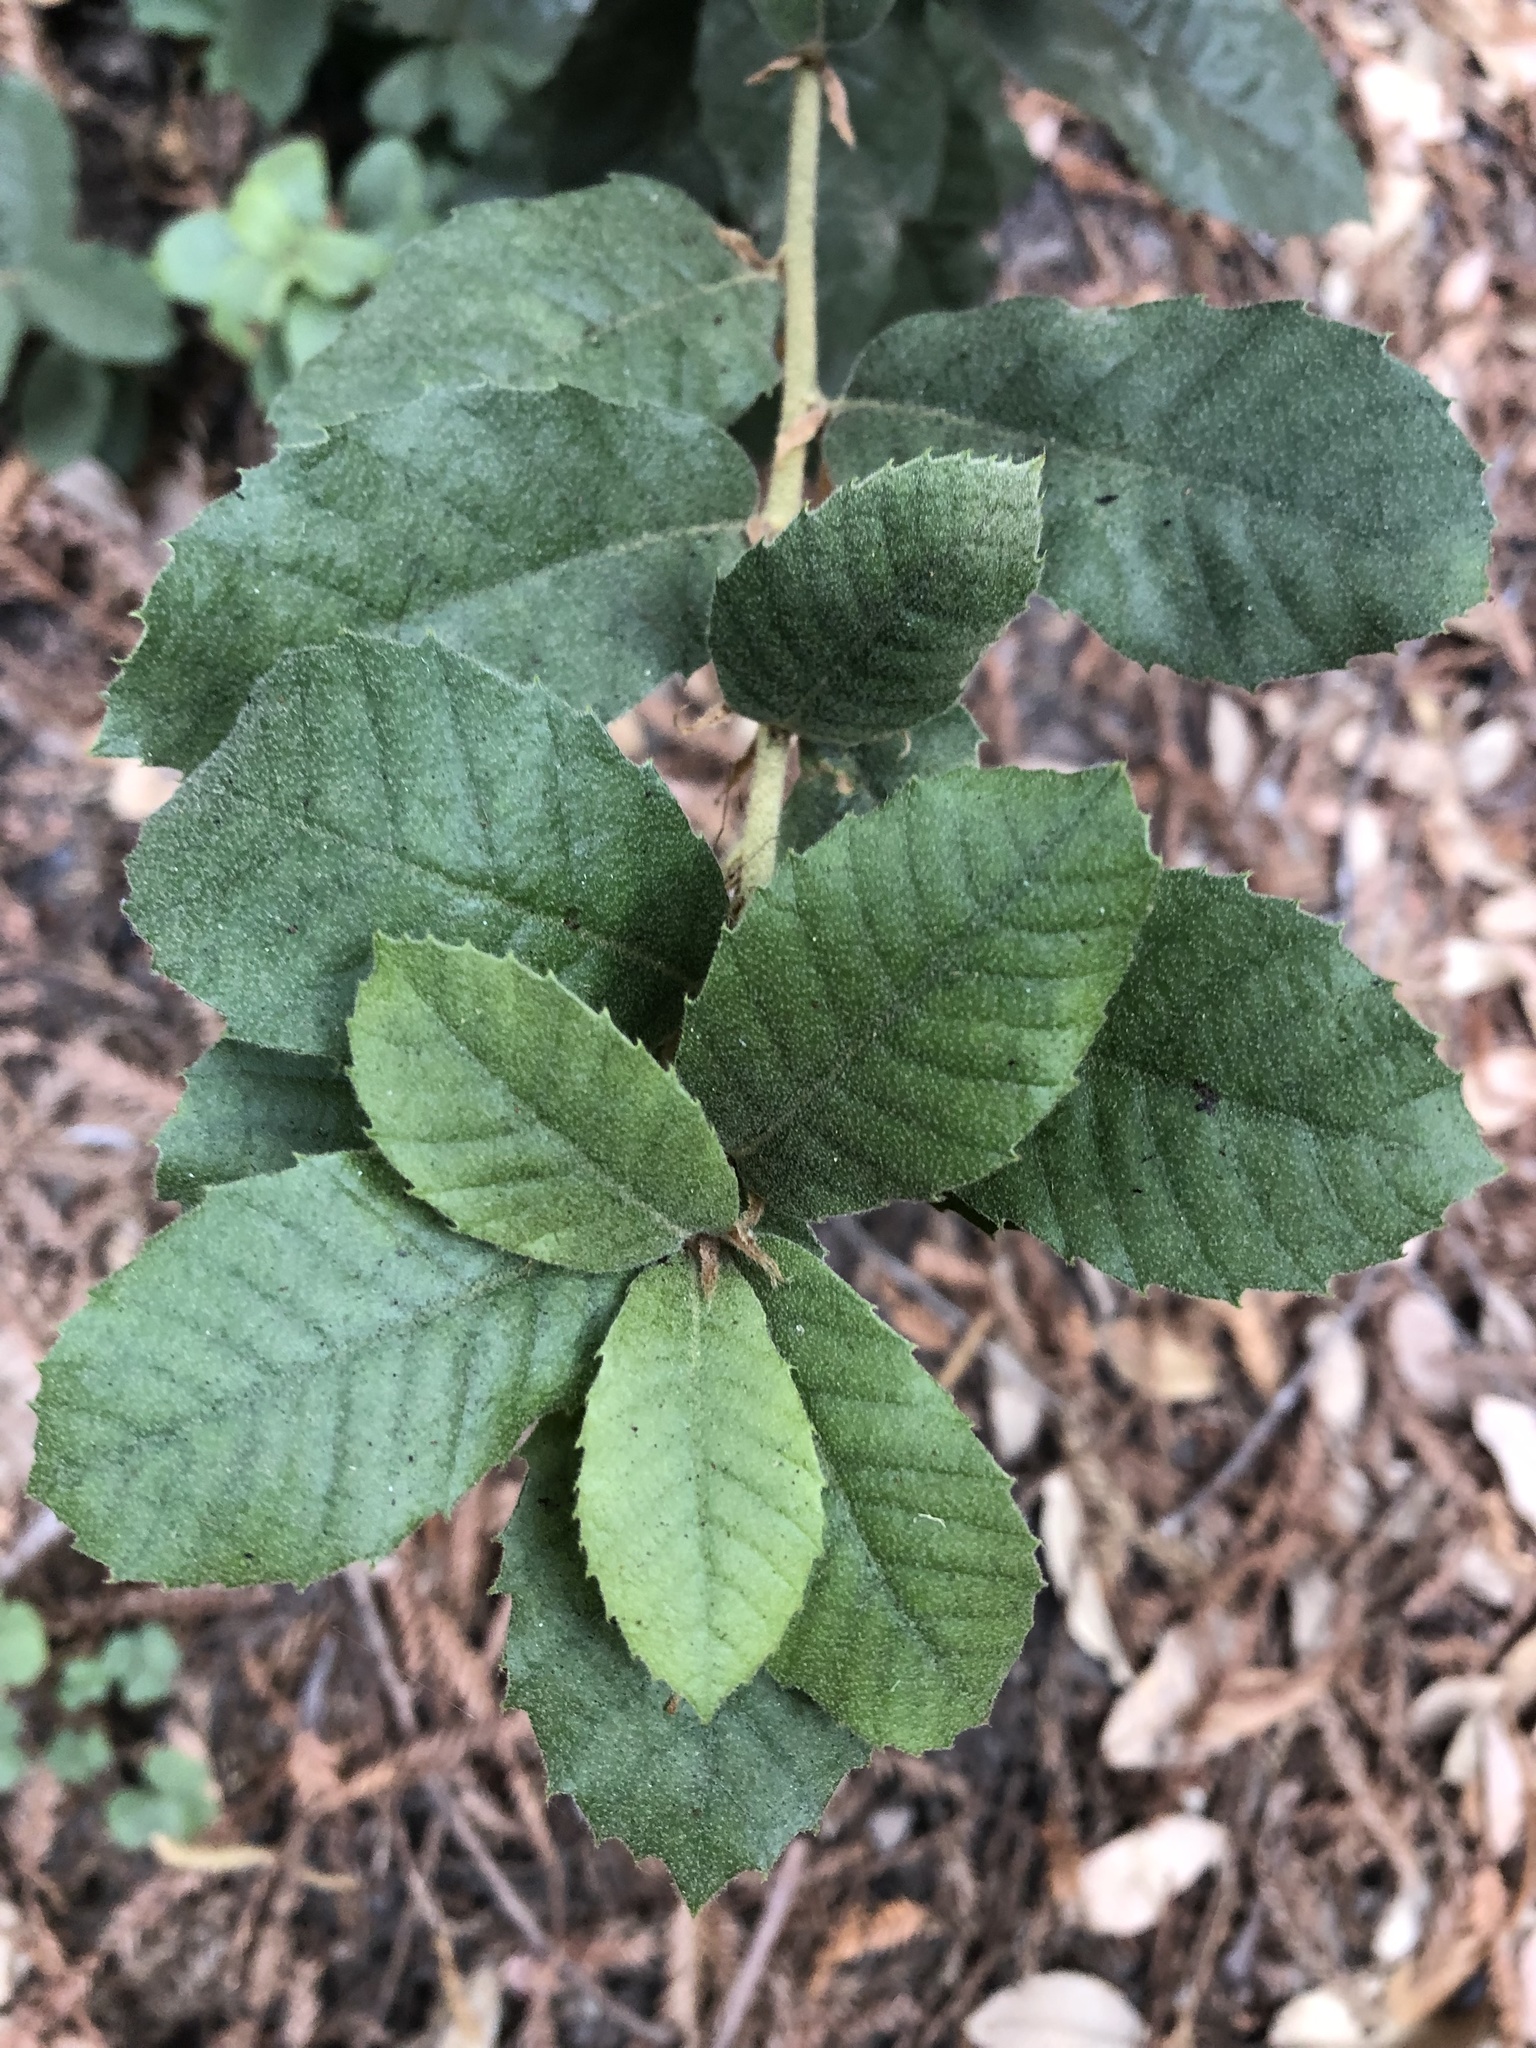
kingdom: Plantae
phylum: Tracheophyta
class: Magnoliopsida
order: Fagales
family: Fagaceae
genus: Notholithocarpus
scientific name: Notholithocarpus densiflorus
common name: Tan bark oak
